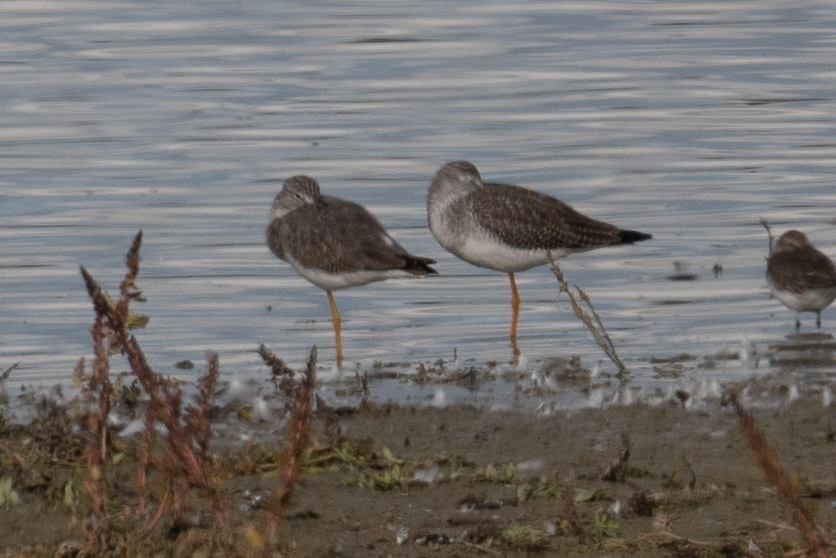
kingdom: Animalia
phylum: Chordata
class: Aves
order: Charadriiformes
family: Scolopacidae
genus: Tringa
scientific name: Tringa melanoleuca
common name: Greater yellowlegs
